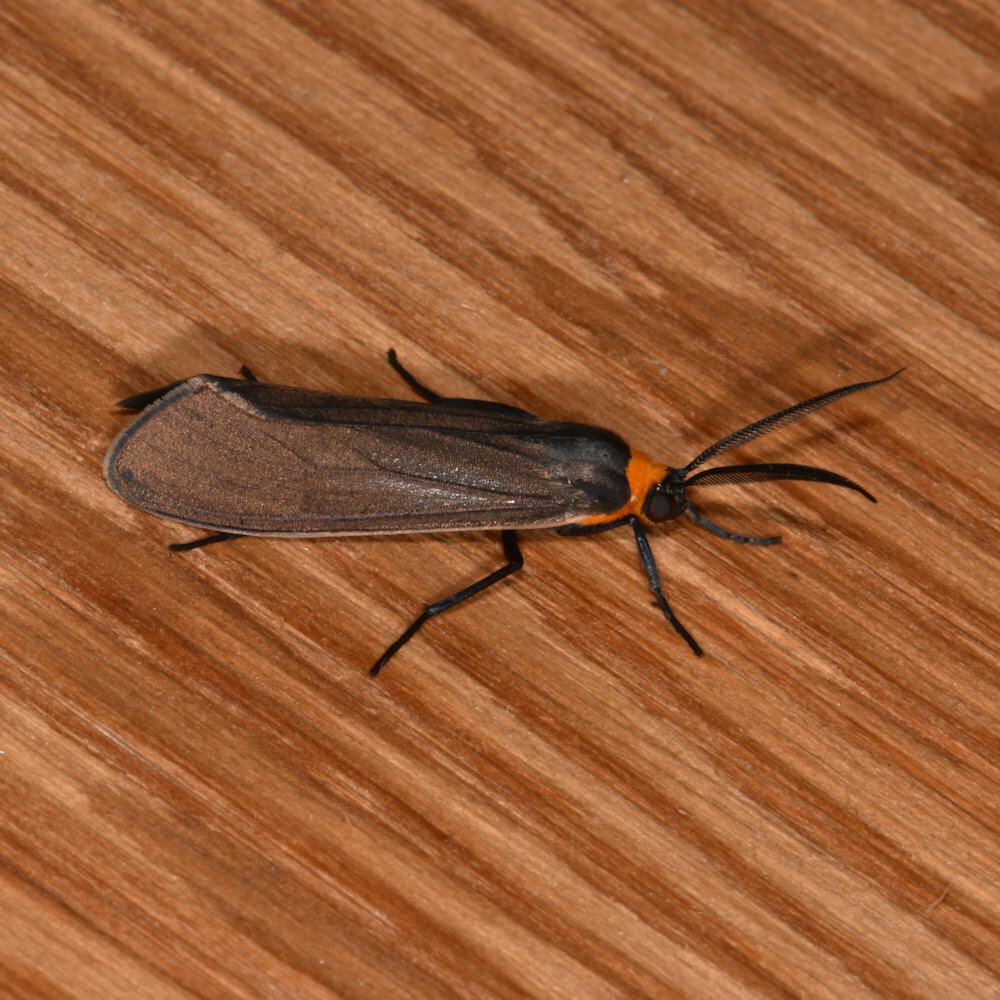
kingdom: Animalia
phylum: Arthropoda
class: Insecta
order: Lepidoptera
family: Erebidae
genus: Cisseps
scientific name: Cisseps fulvicollis
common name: Yellow-collared scape moth
